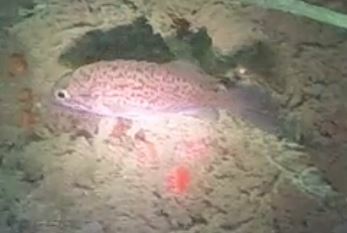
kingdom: Animalia
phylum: Chordata
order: Scorpaeniformes
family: Sebastidae
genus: Sebastes
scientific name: Sebastes mystinus
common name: Blue rockfish
